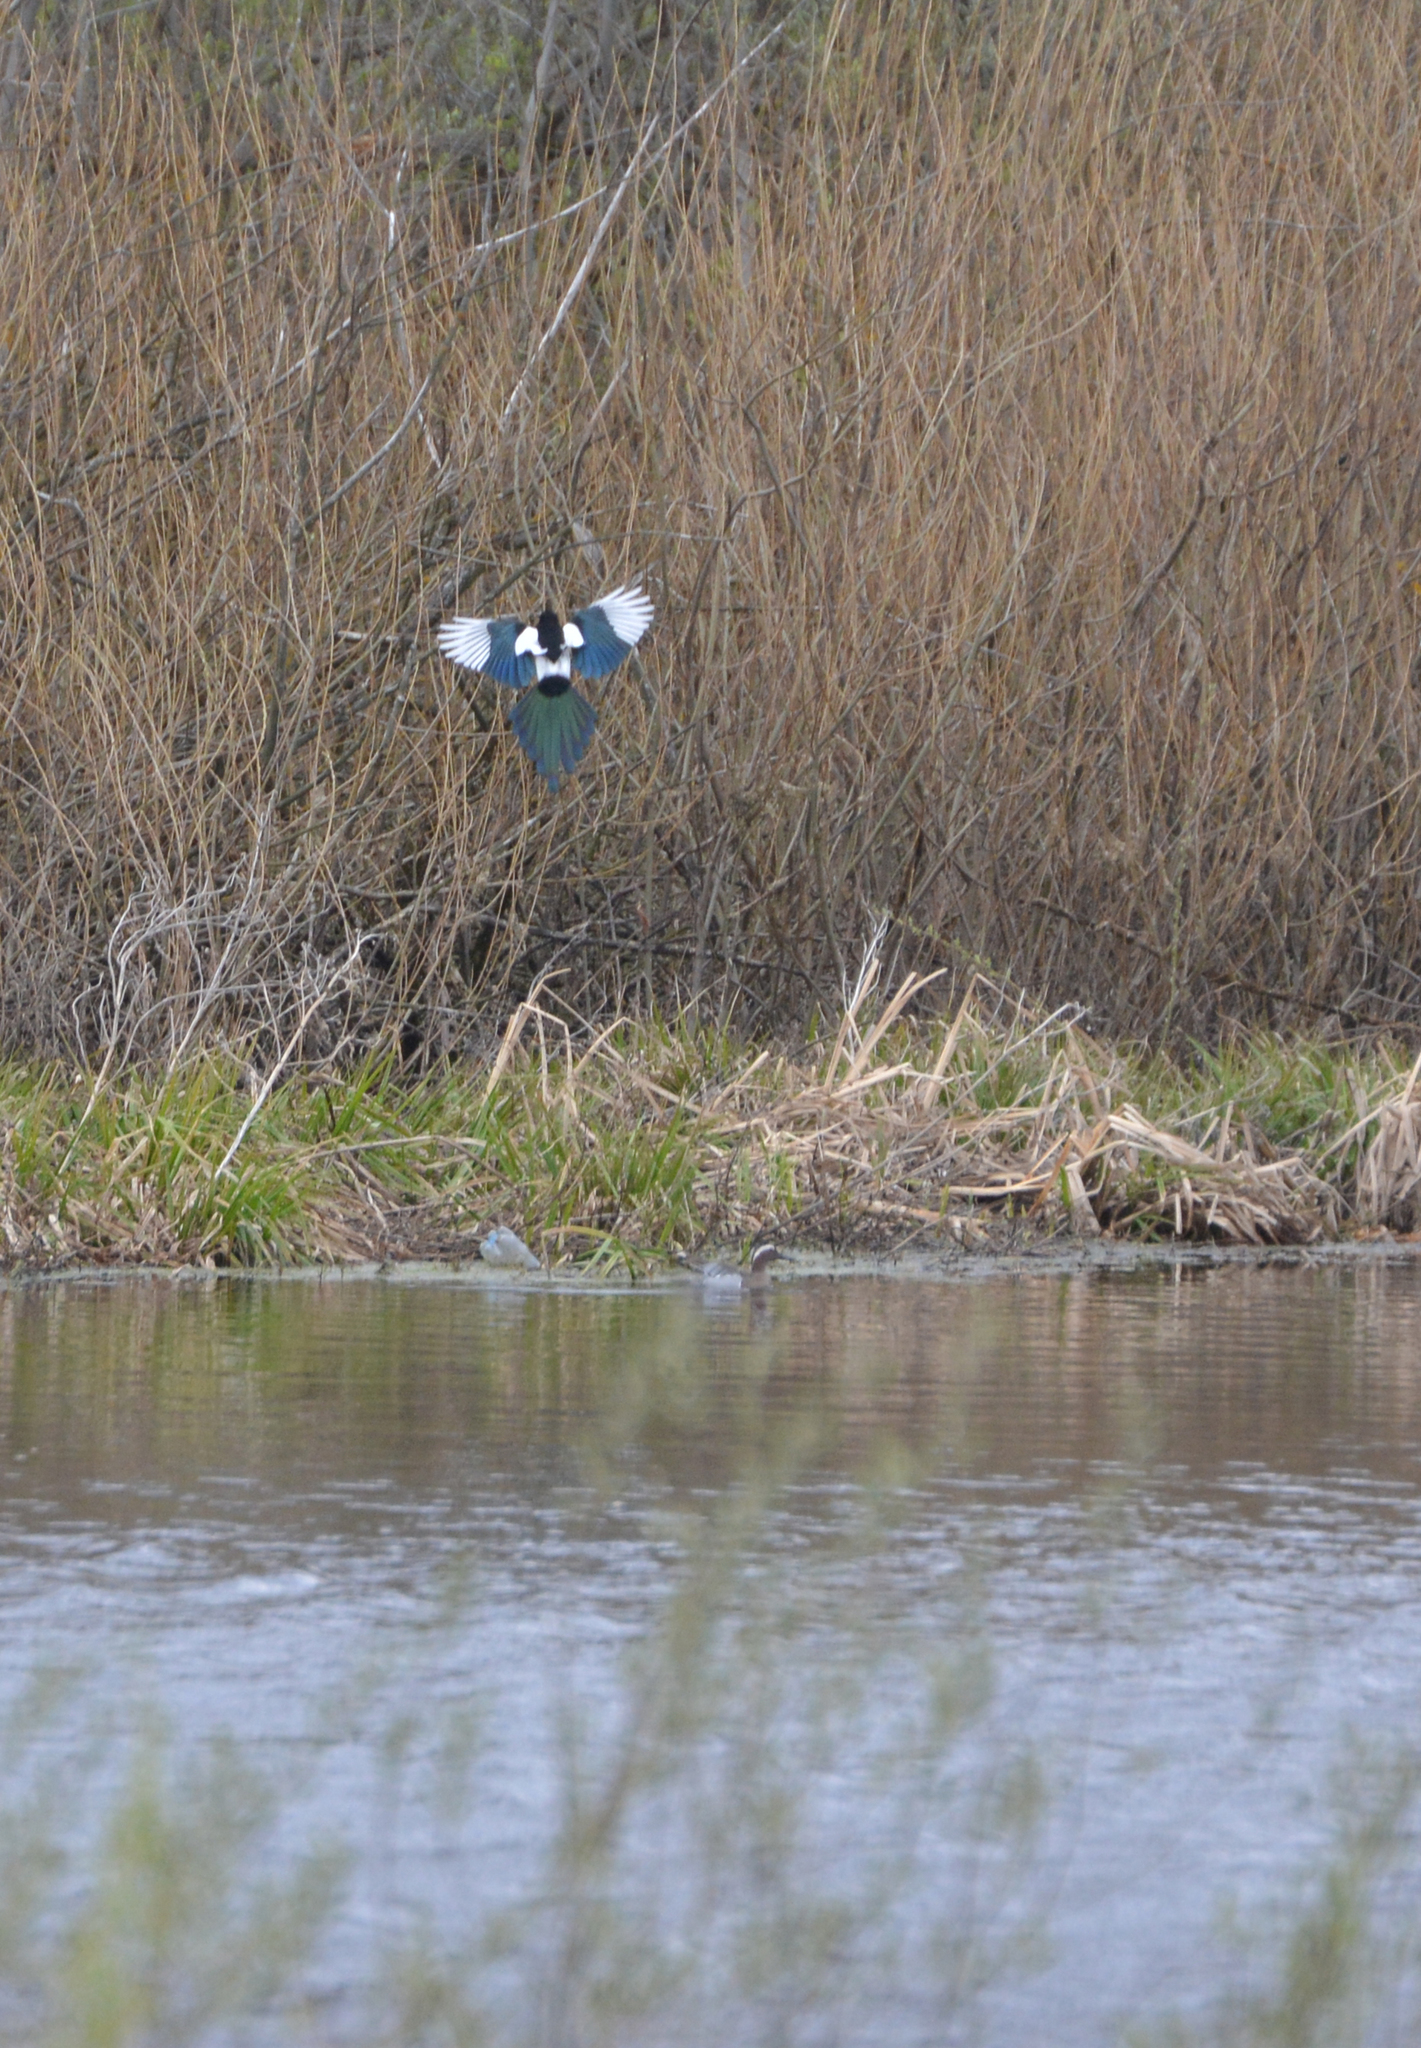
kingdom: Animalia
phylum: Chordata
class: Aves
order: Passeriformes
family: Corvidae
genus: Pica
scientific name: Pica pica
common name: Eurasian magpie
